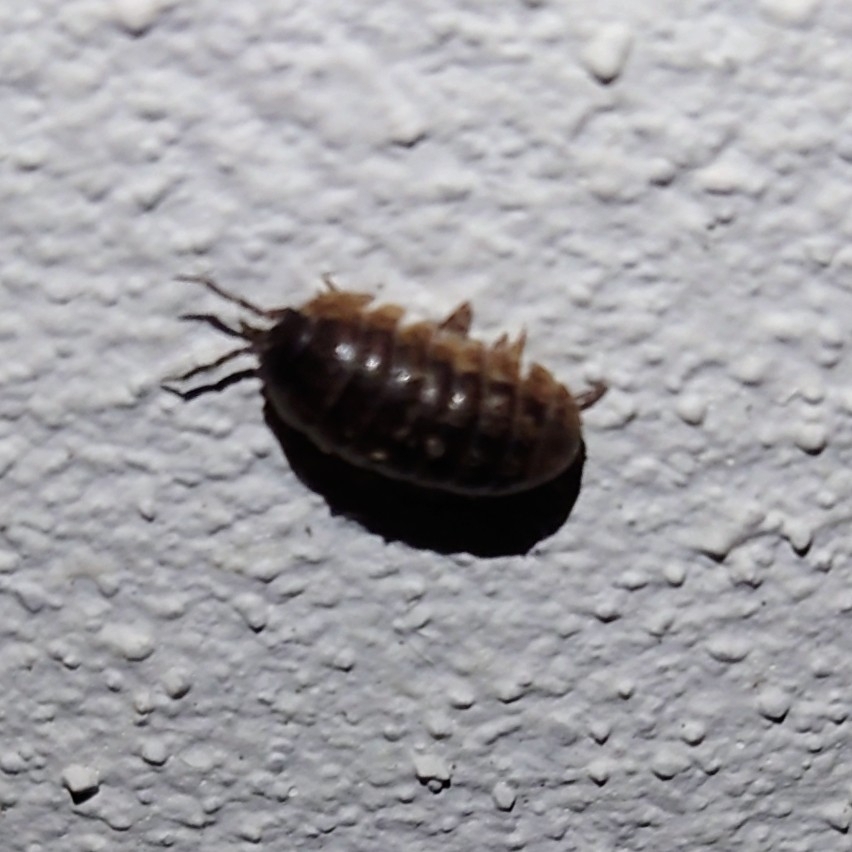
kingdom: Animalia
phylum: Arthropoda
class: Malacostraca
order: Isopoda
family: Armadillidiidae
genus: Armadillidium
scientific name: Armadillidium vulgare
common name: Common pill woodlouse
